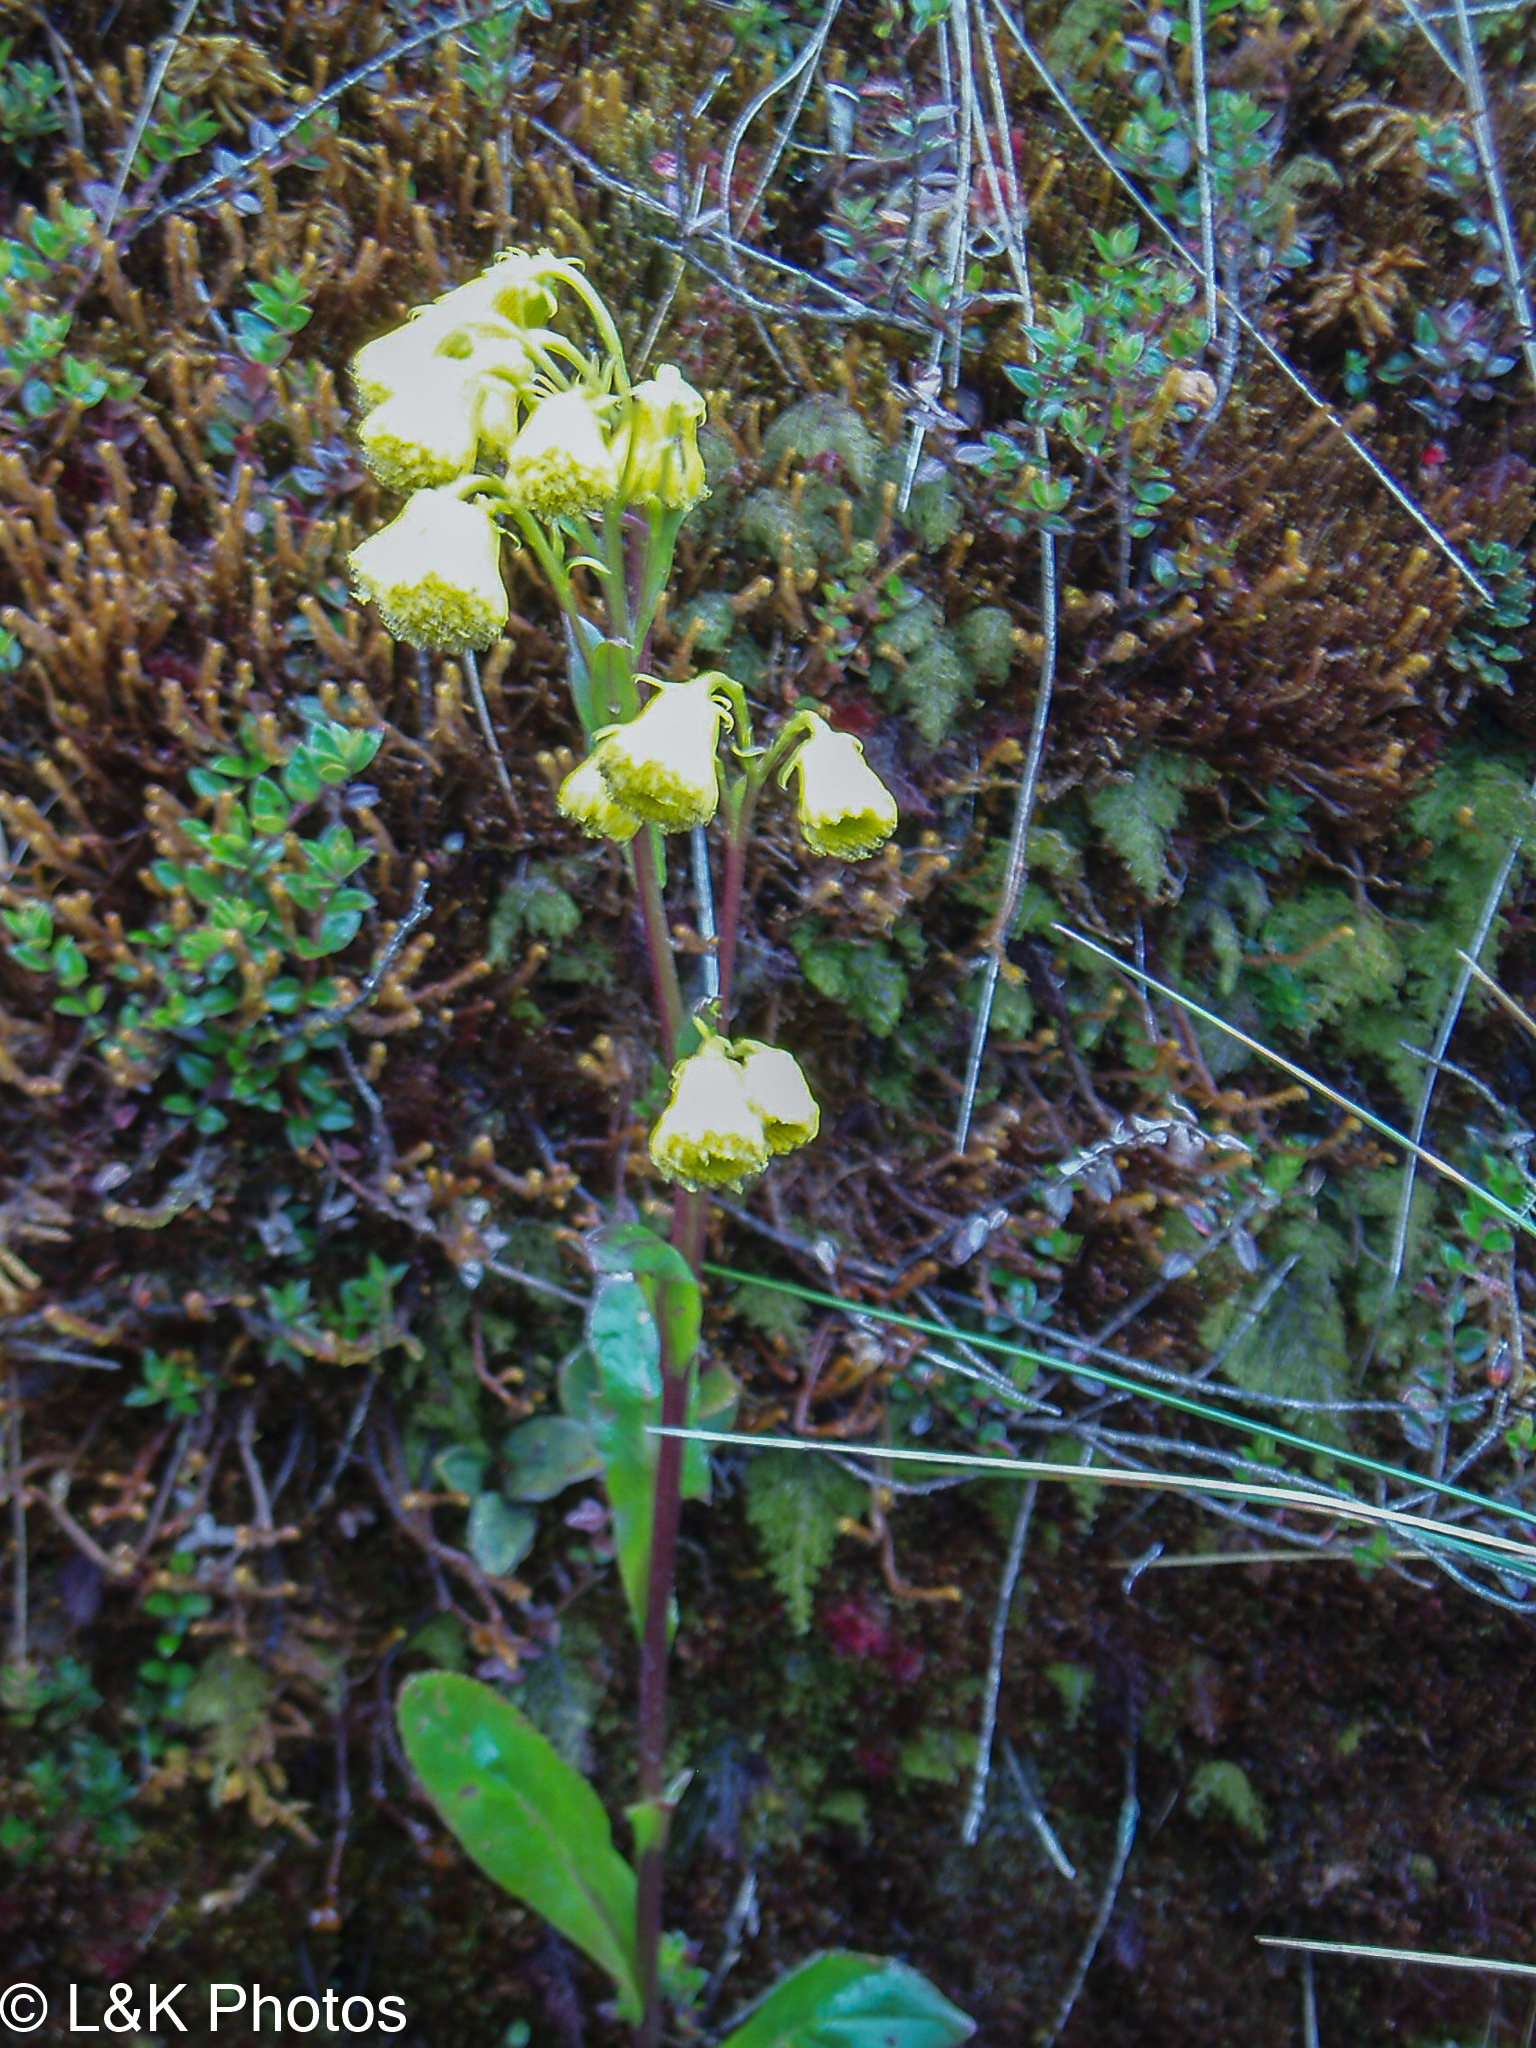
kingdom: Plantae
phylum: Tracheophyta
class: Magnoliopsida
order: Asterales
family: Asteraceae
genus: Senecio
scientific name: Senecio praeruptorum
